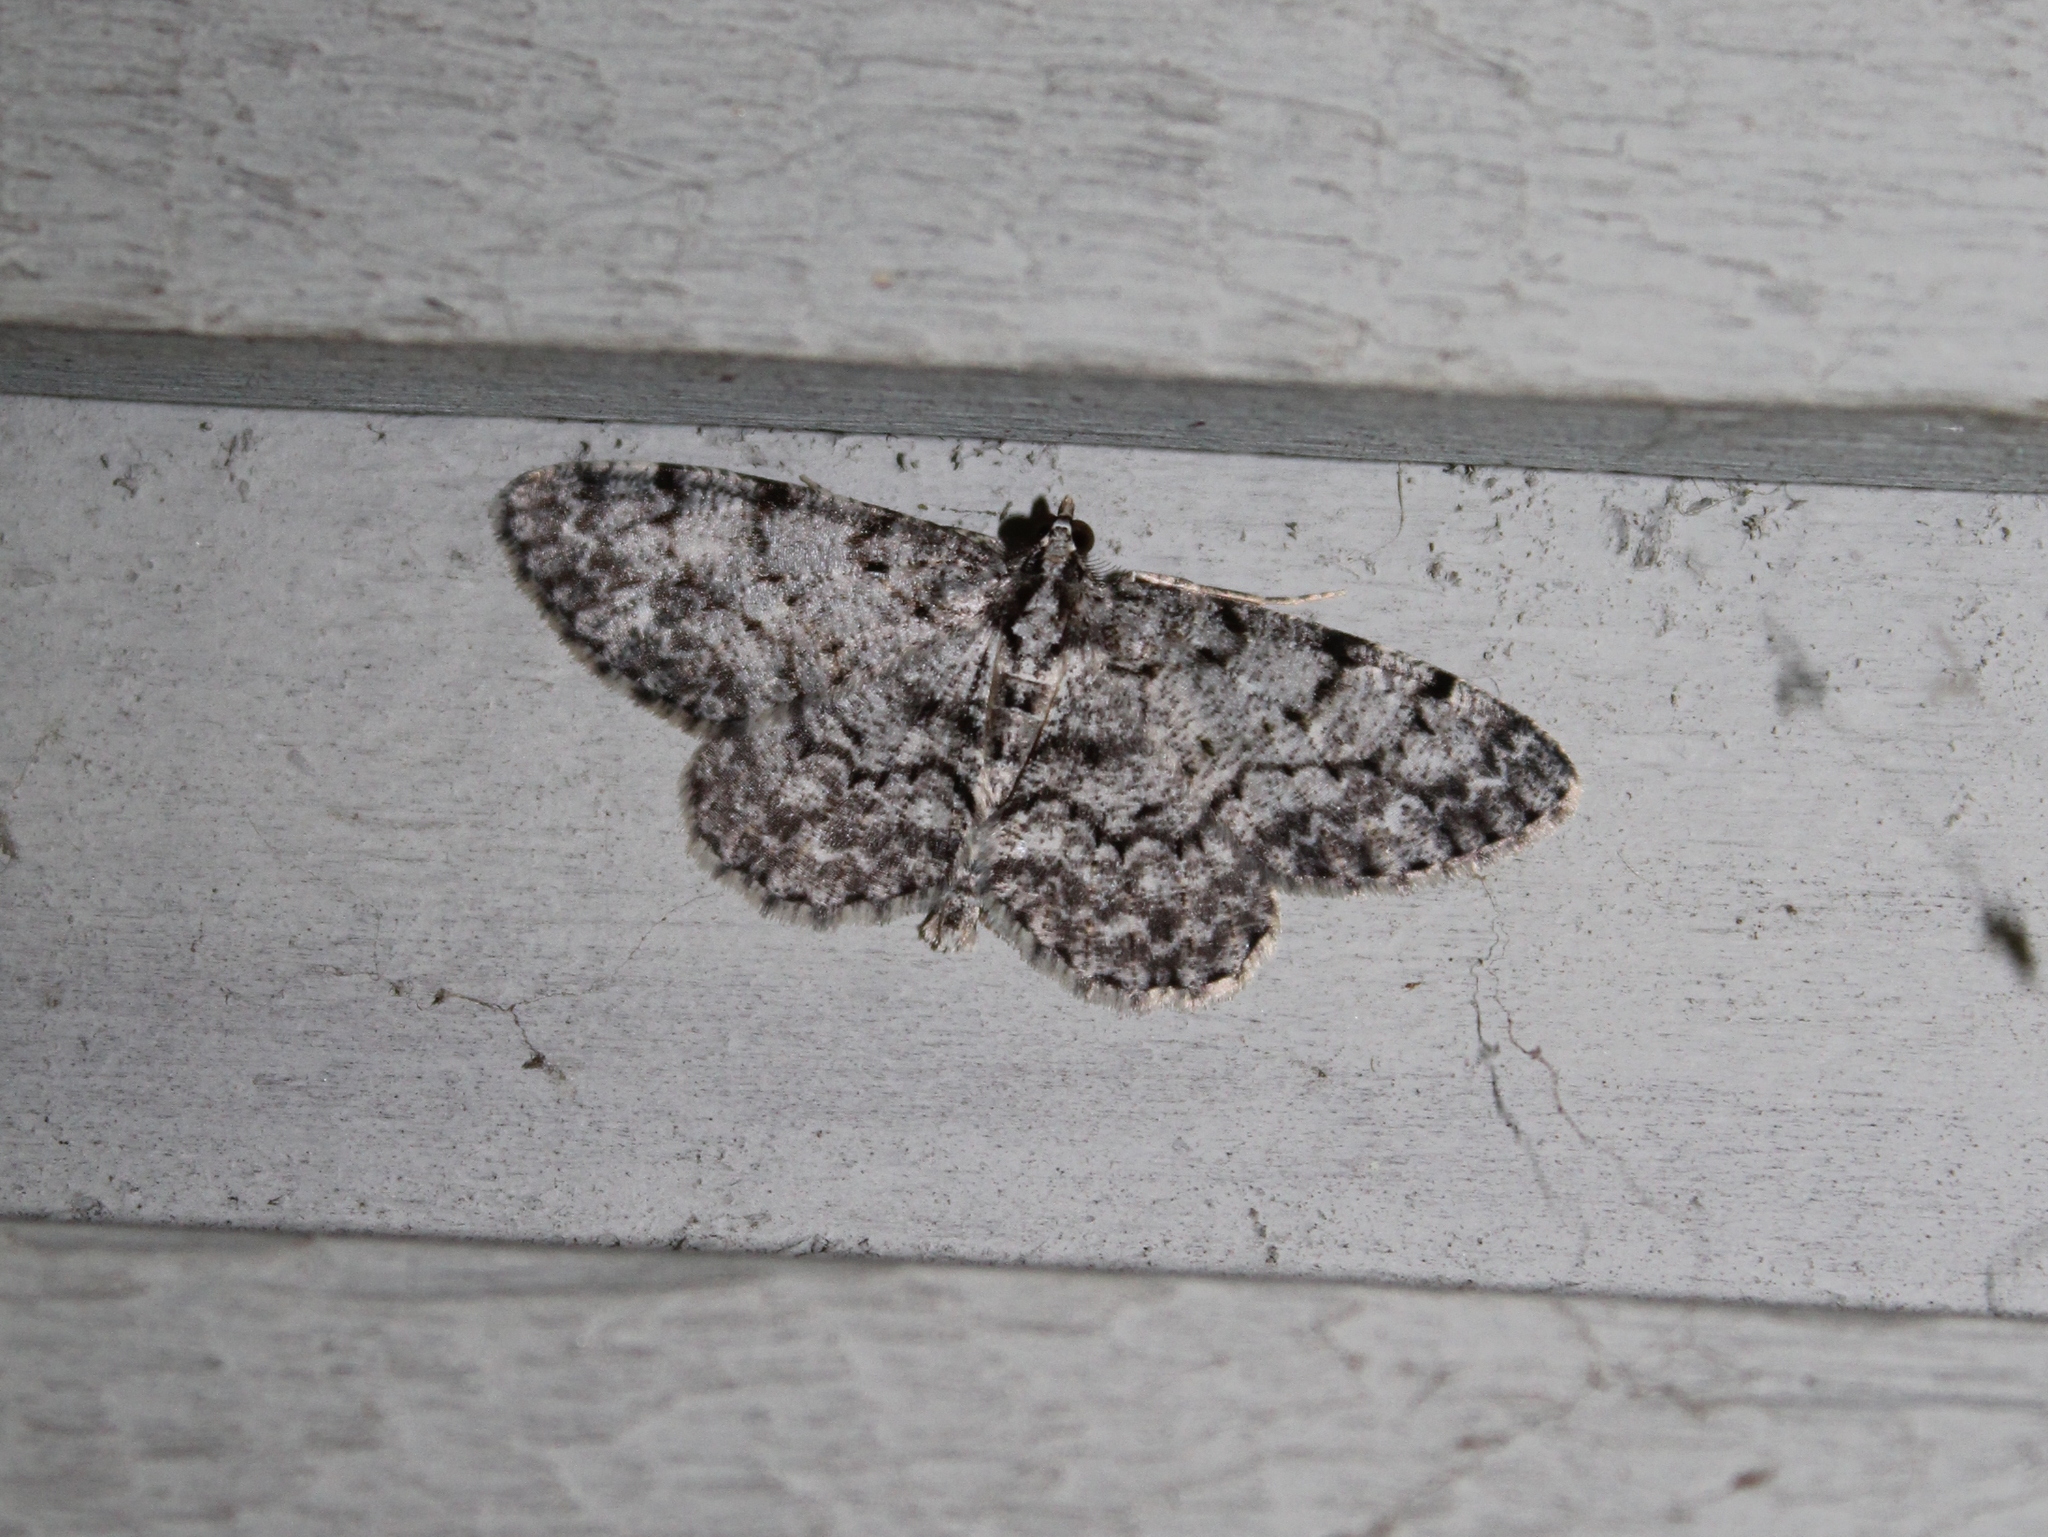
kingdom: Animalia
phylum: Arthropoda
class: Insecta
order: Lepidoptera
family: Geometridae
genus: Protoboarmia
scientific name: Protoboarmia porcelaria
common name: Porcelain gray
